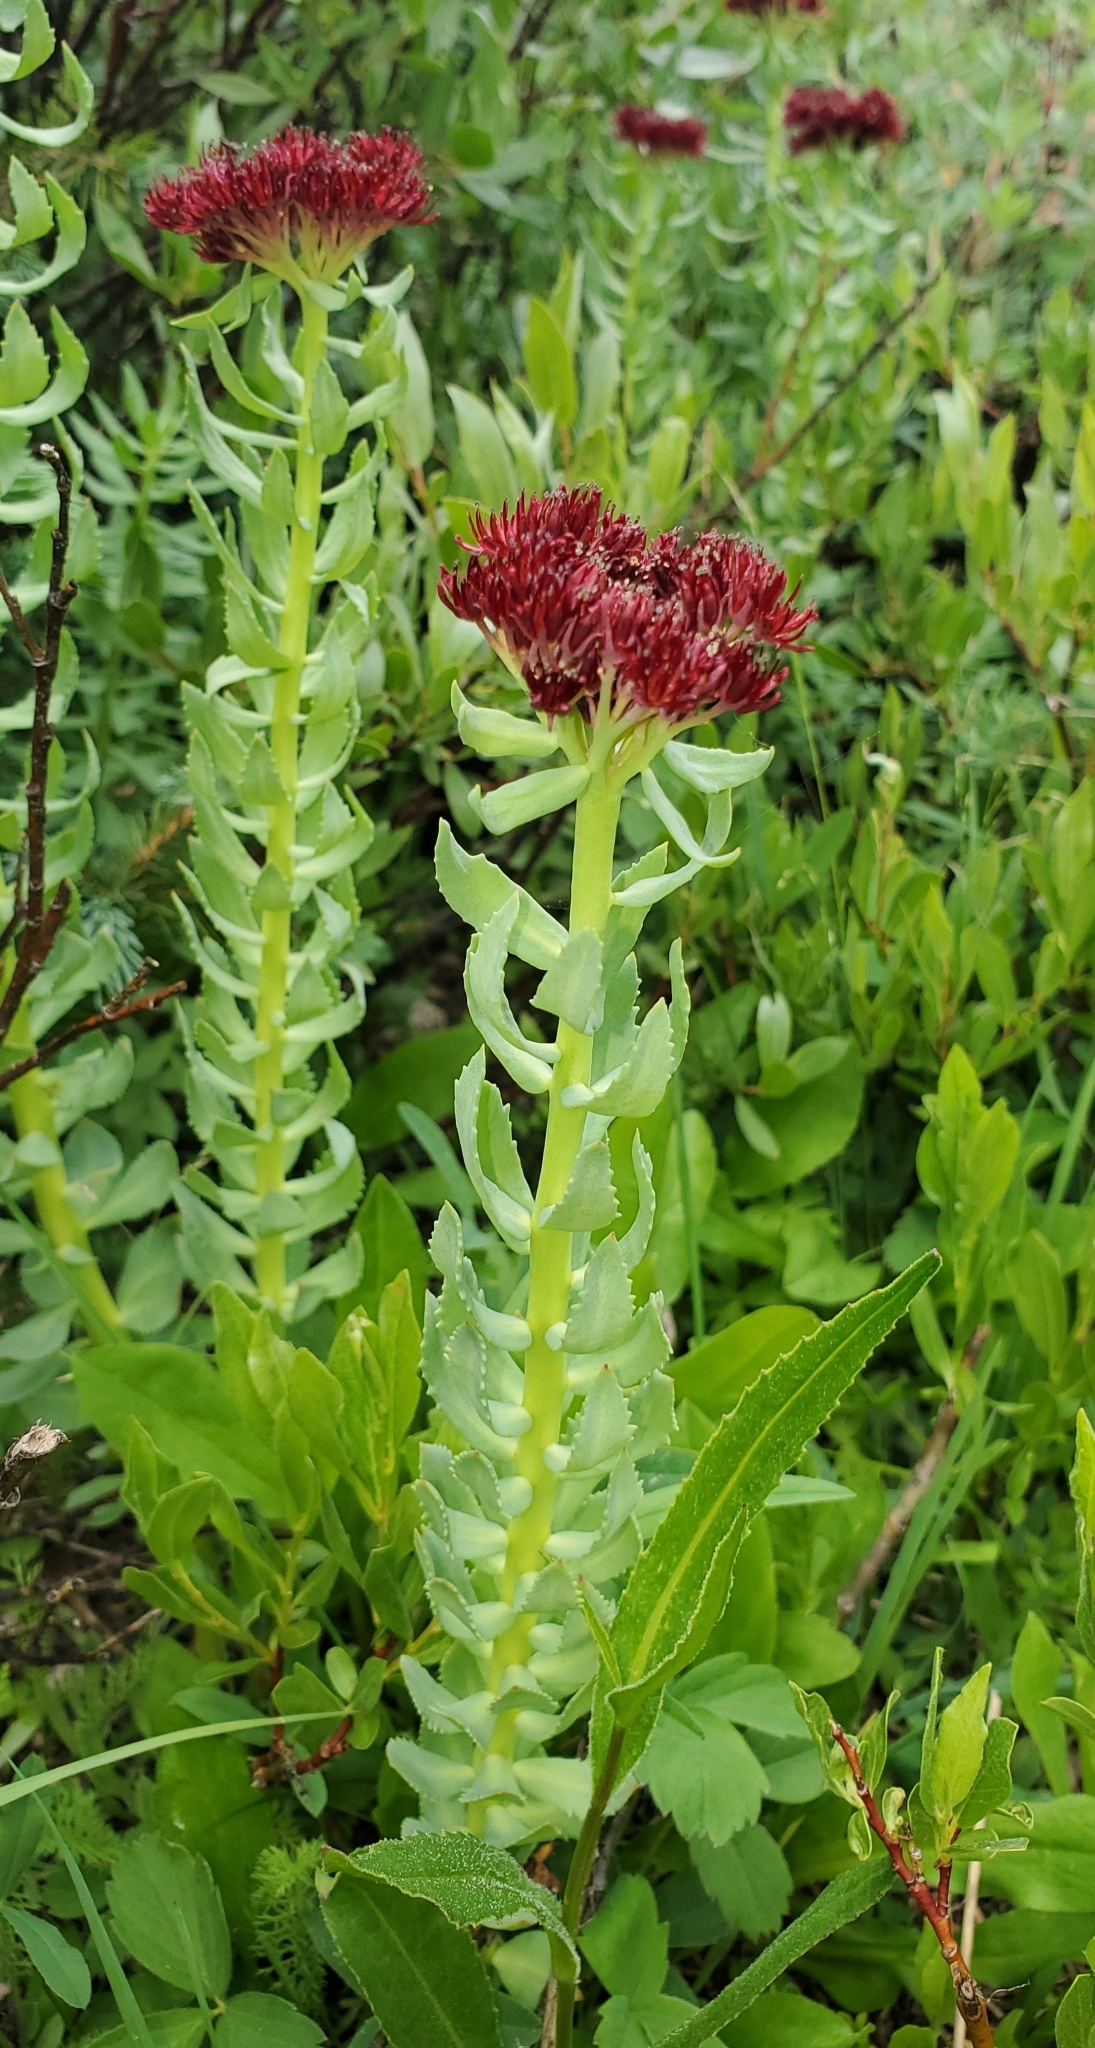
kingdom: Plantae
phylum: Tracheophyta
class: Magnoliopsida
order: Saxifragales
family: Crassulaceae
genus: Rhodiola
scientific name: Rhodiola integrifolia
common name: Western roseroot
